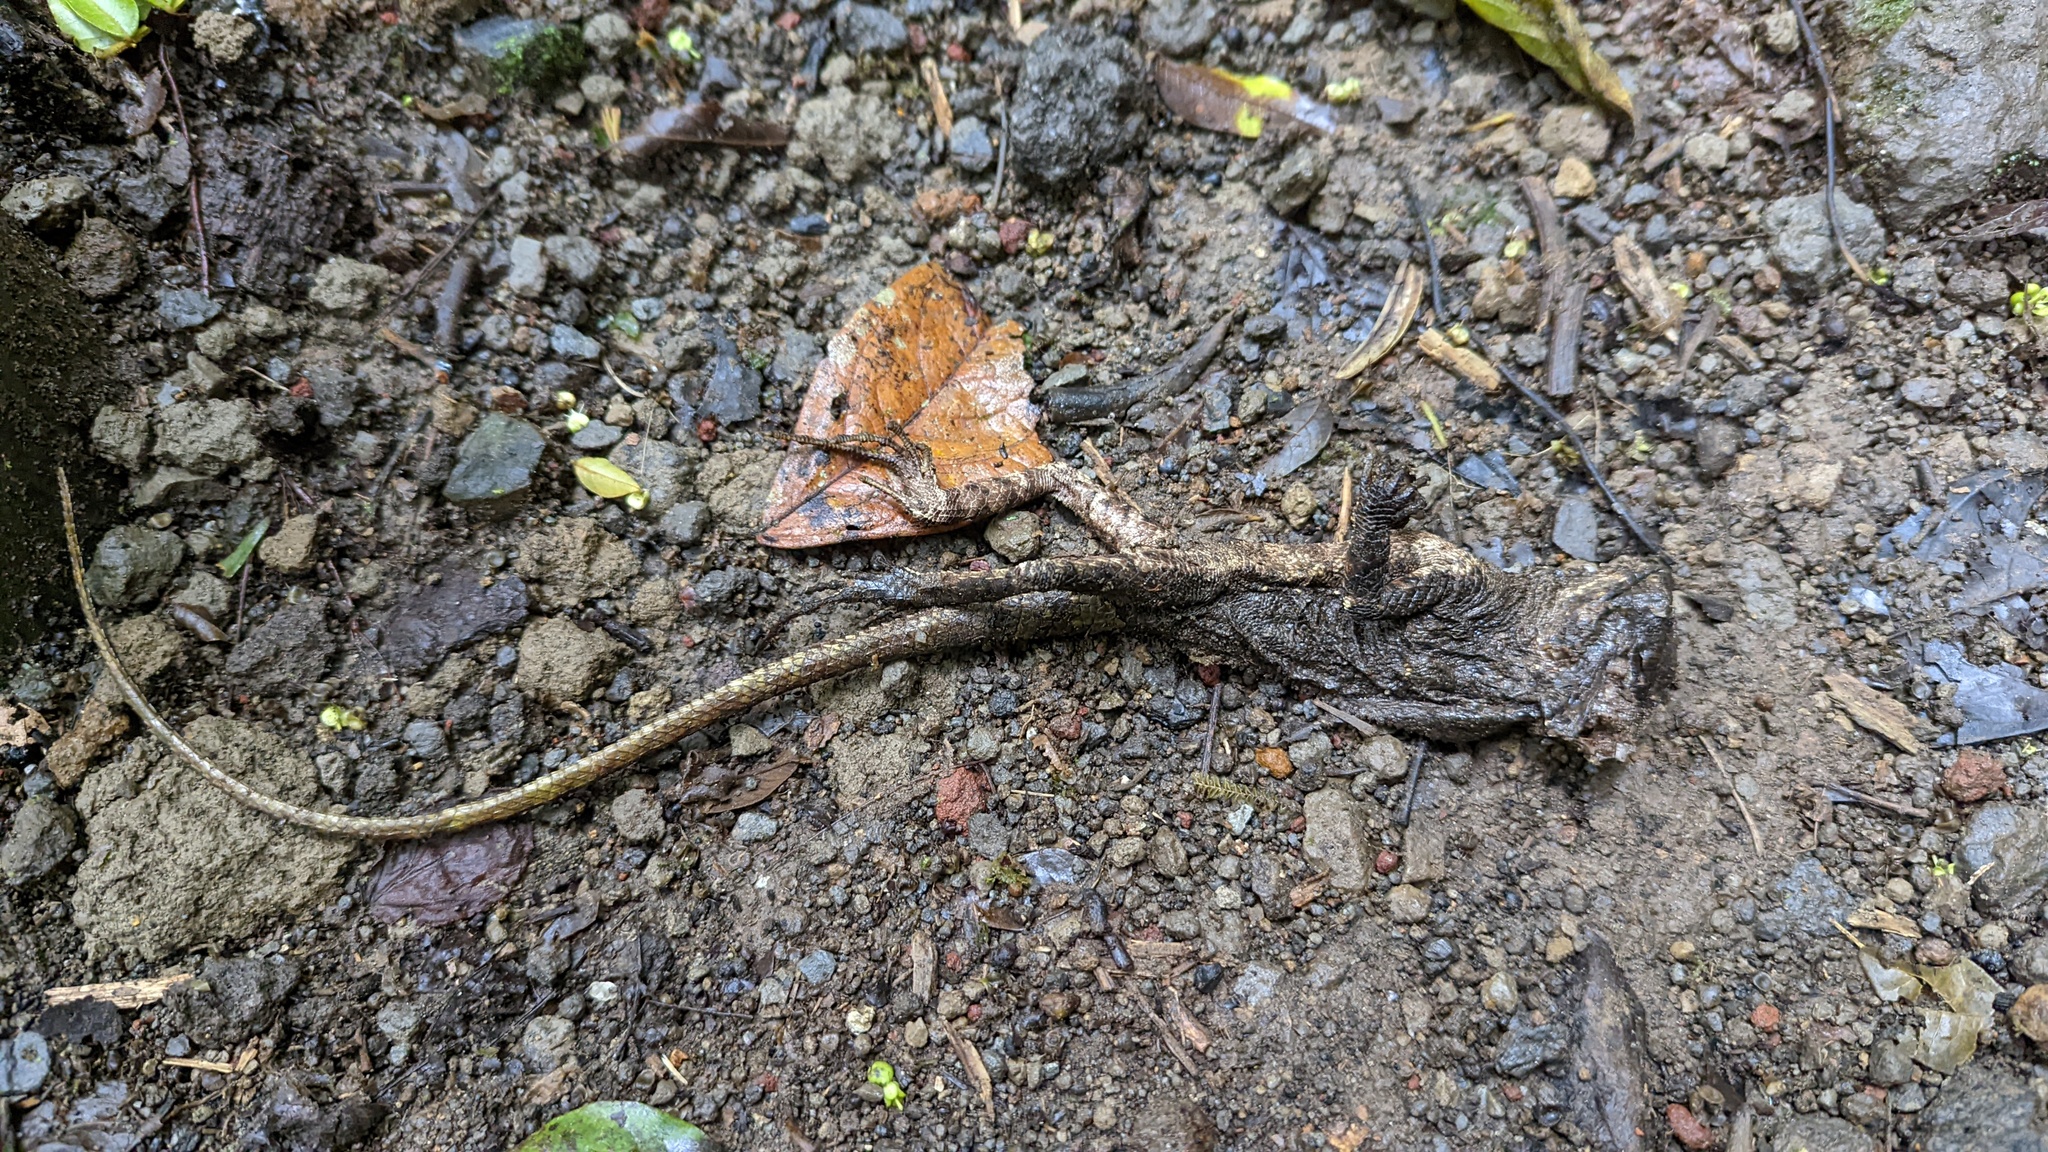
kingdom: Animalia
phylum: Chordata
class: Squamata
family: Corytophanidae
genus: Basiliscus
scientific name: Basiliscus vittatus
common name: Brown basilisk
